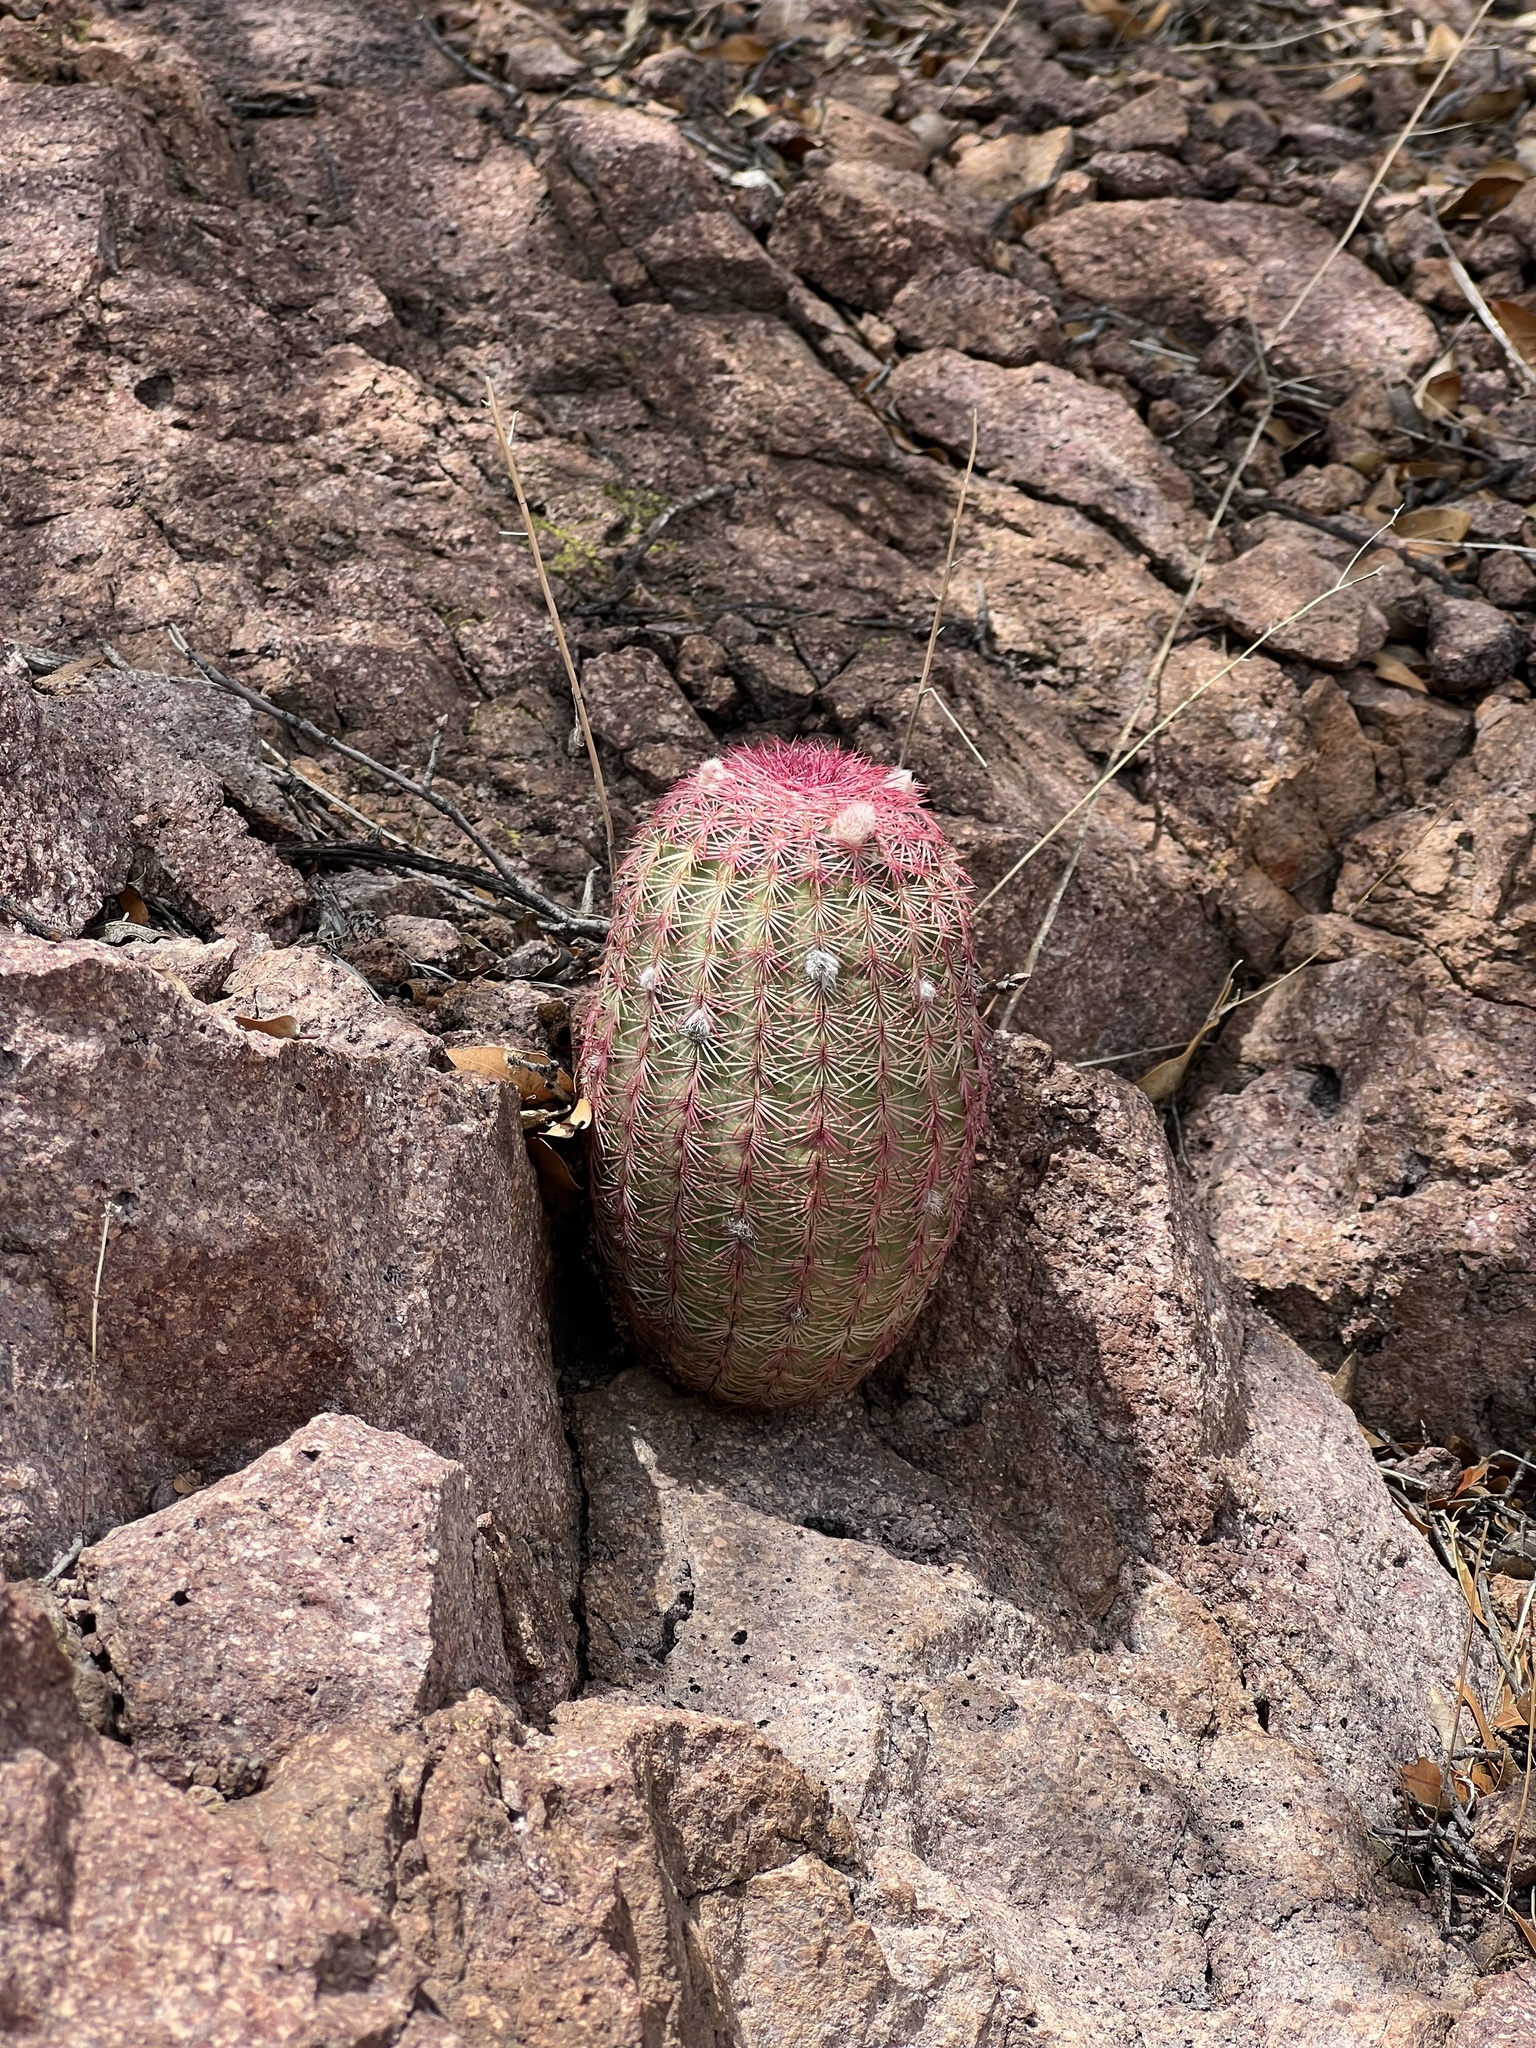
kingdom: Plantae
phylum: Tracheophyta
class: Magnoliopsida
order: Caryophyllales
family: Cactaceae
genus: Echinocereus
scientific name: Echinocereus rigidissimus
